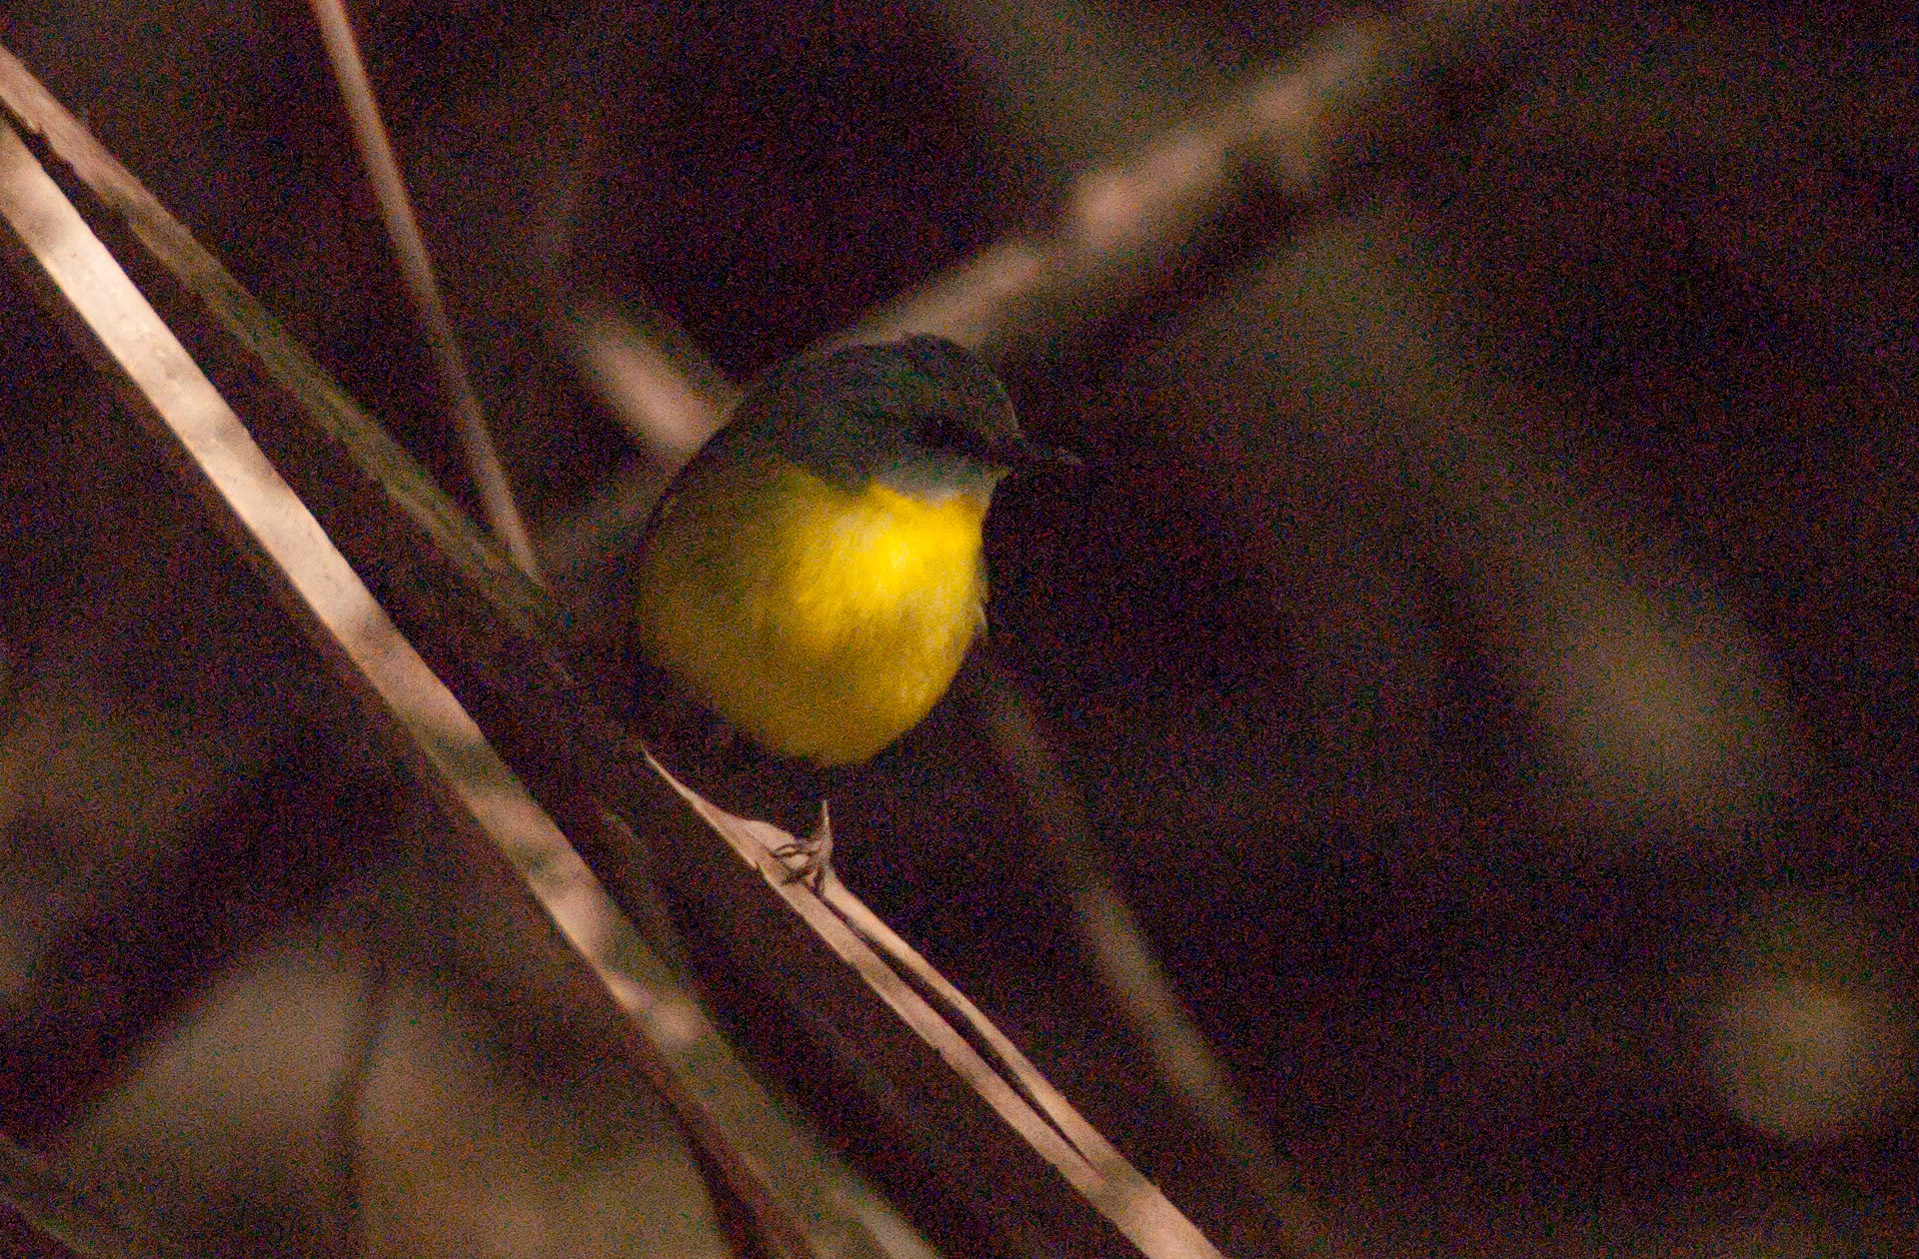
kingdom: Animalia
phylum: Chordata
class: Aves
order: Passeriformes
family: Petroicidae
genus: Eopsaltria
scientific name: Eopsaltria australis
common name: Eastern yellow robin
